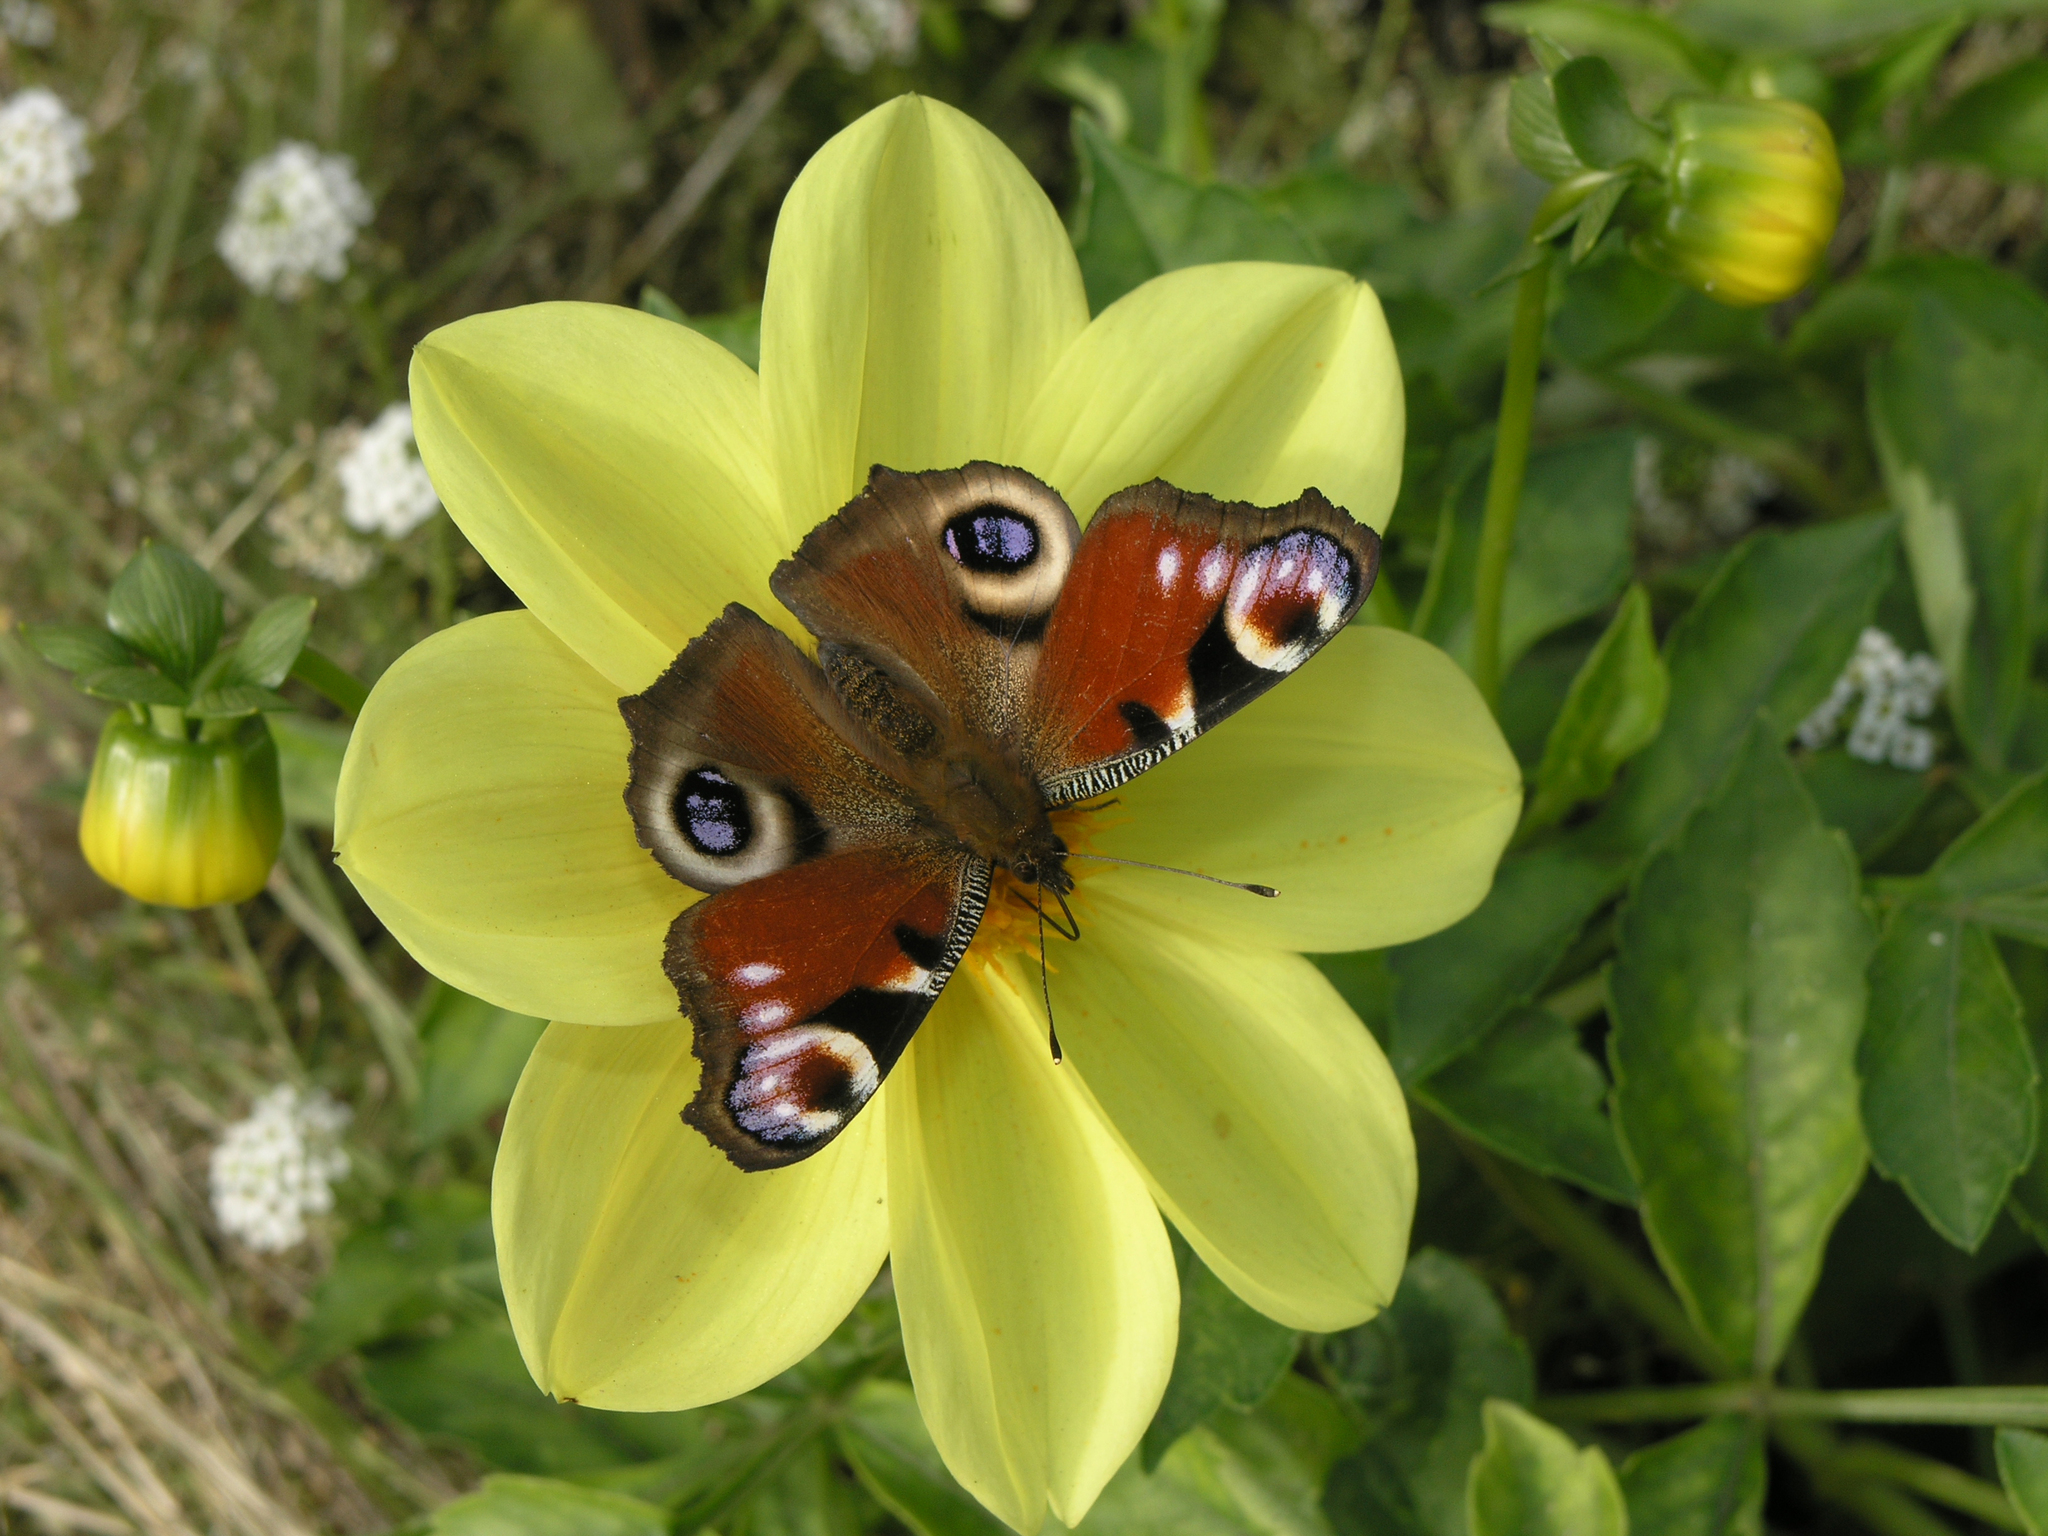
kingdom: Animalia
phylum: Arthropoda
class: Insecta
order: Lepidoptera
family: Nymphalidae
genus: Aglais
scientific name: Aglais io
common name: Peacock
